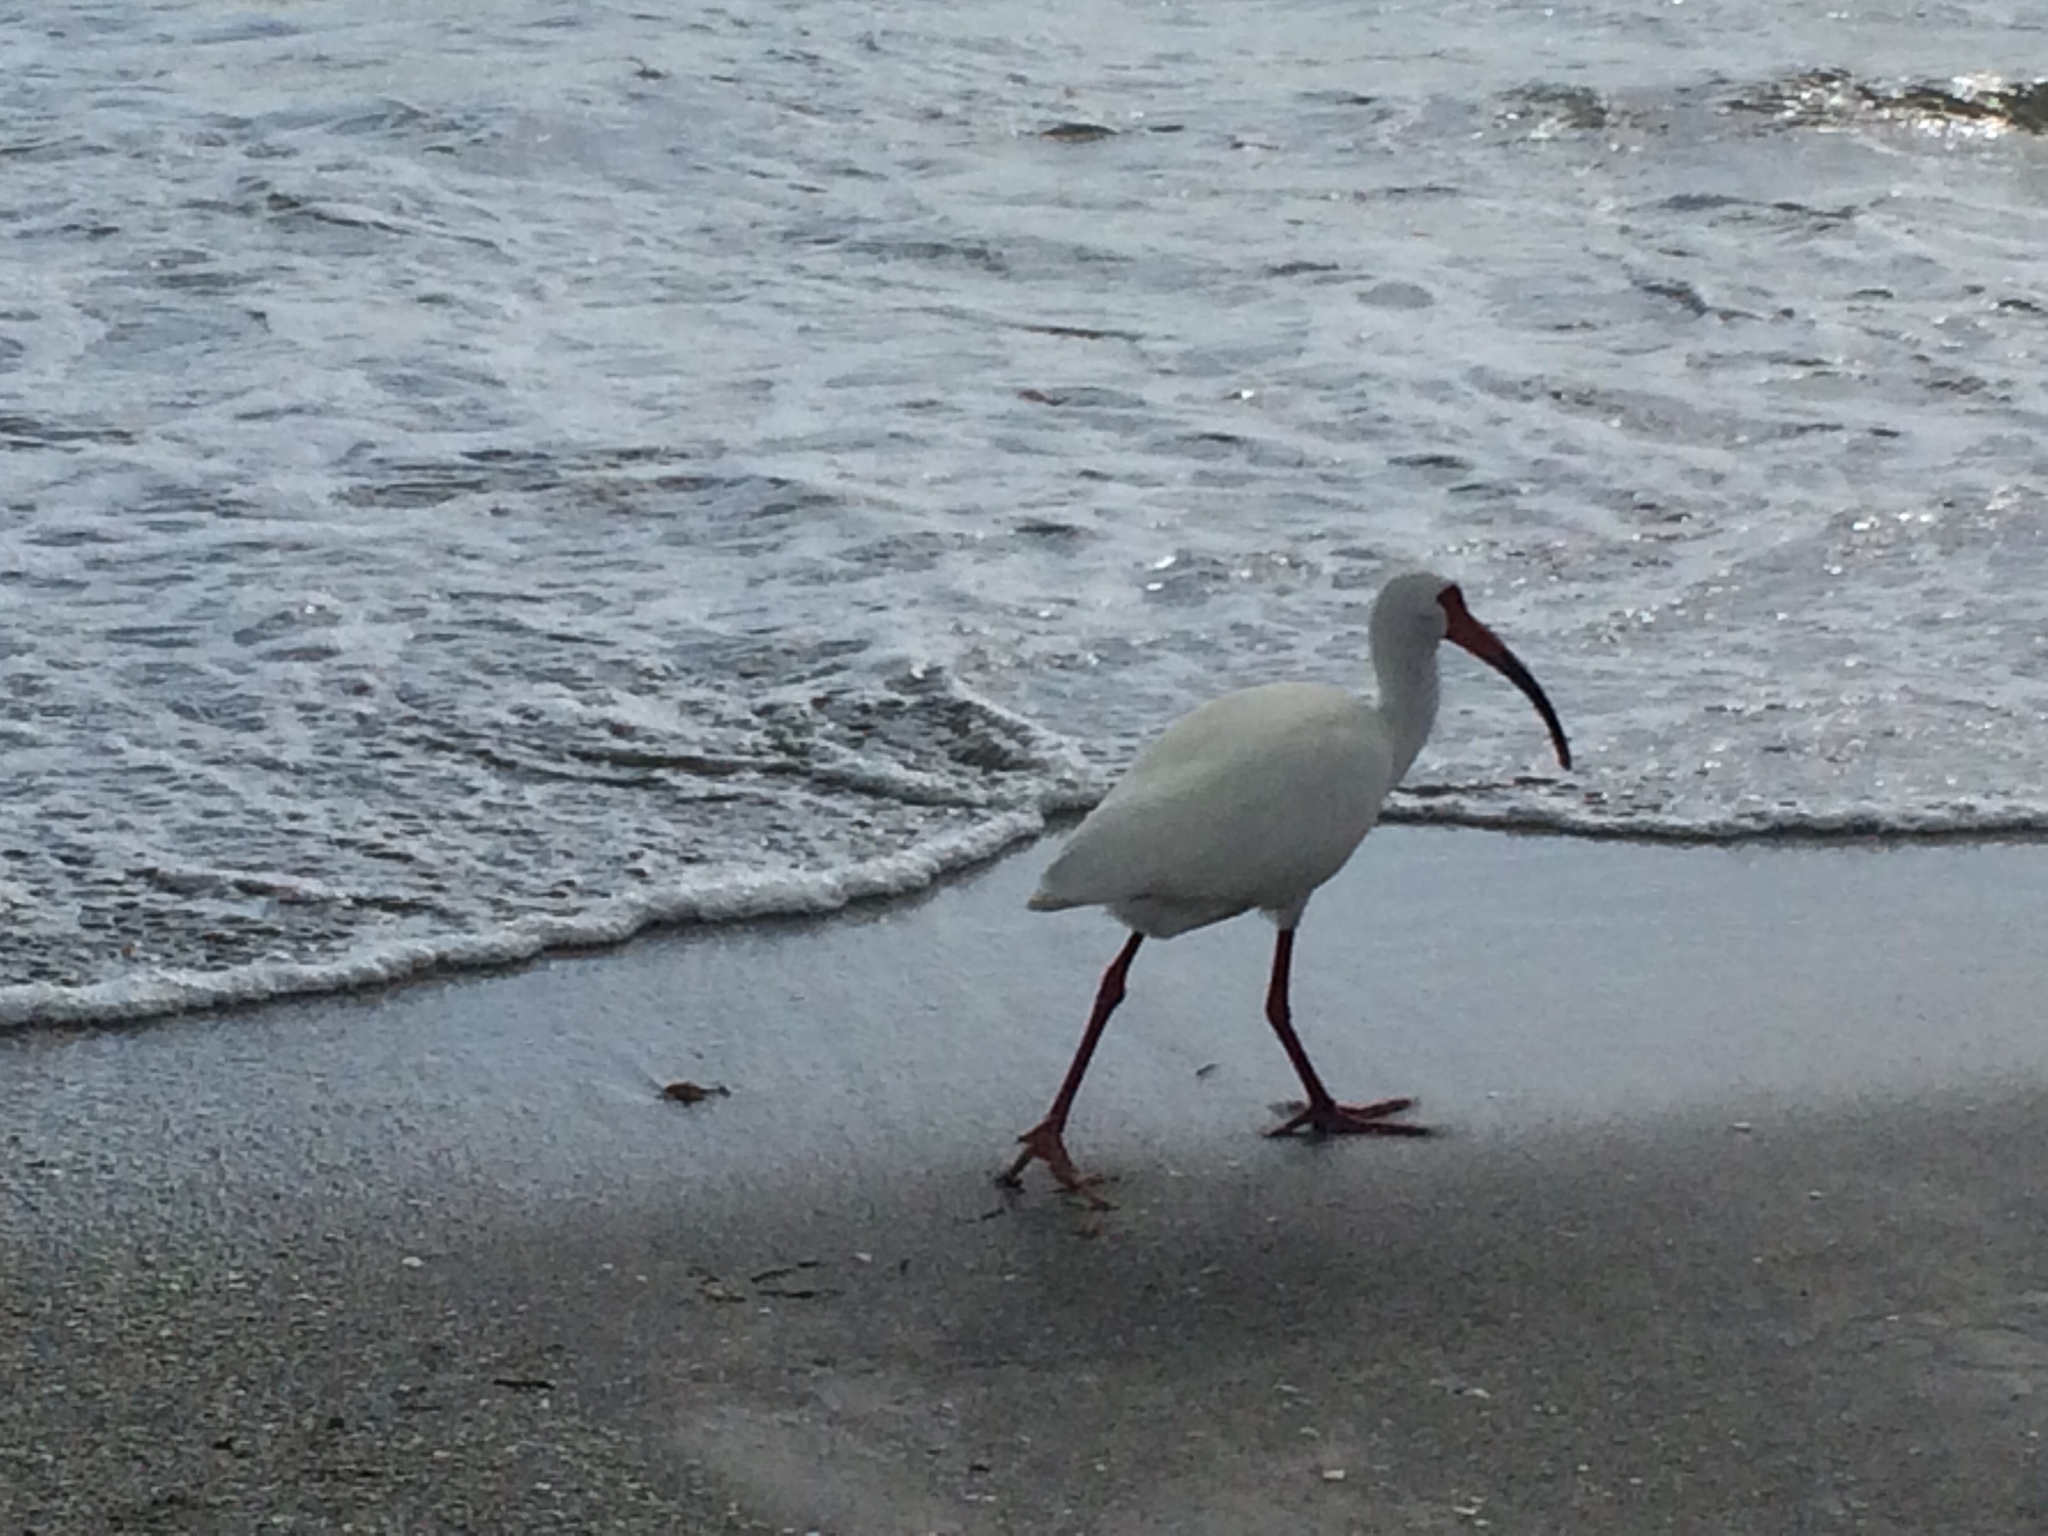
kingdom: Animalia
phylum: Chordata
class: Aves
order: Pelecaniformes
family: Threskiornithidae
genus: Eudocimus
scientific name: Eudocimus albus
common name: White ibis
